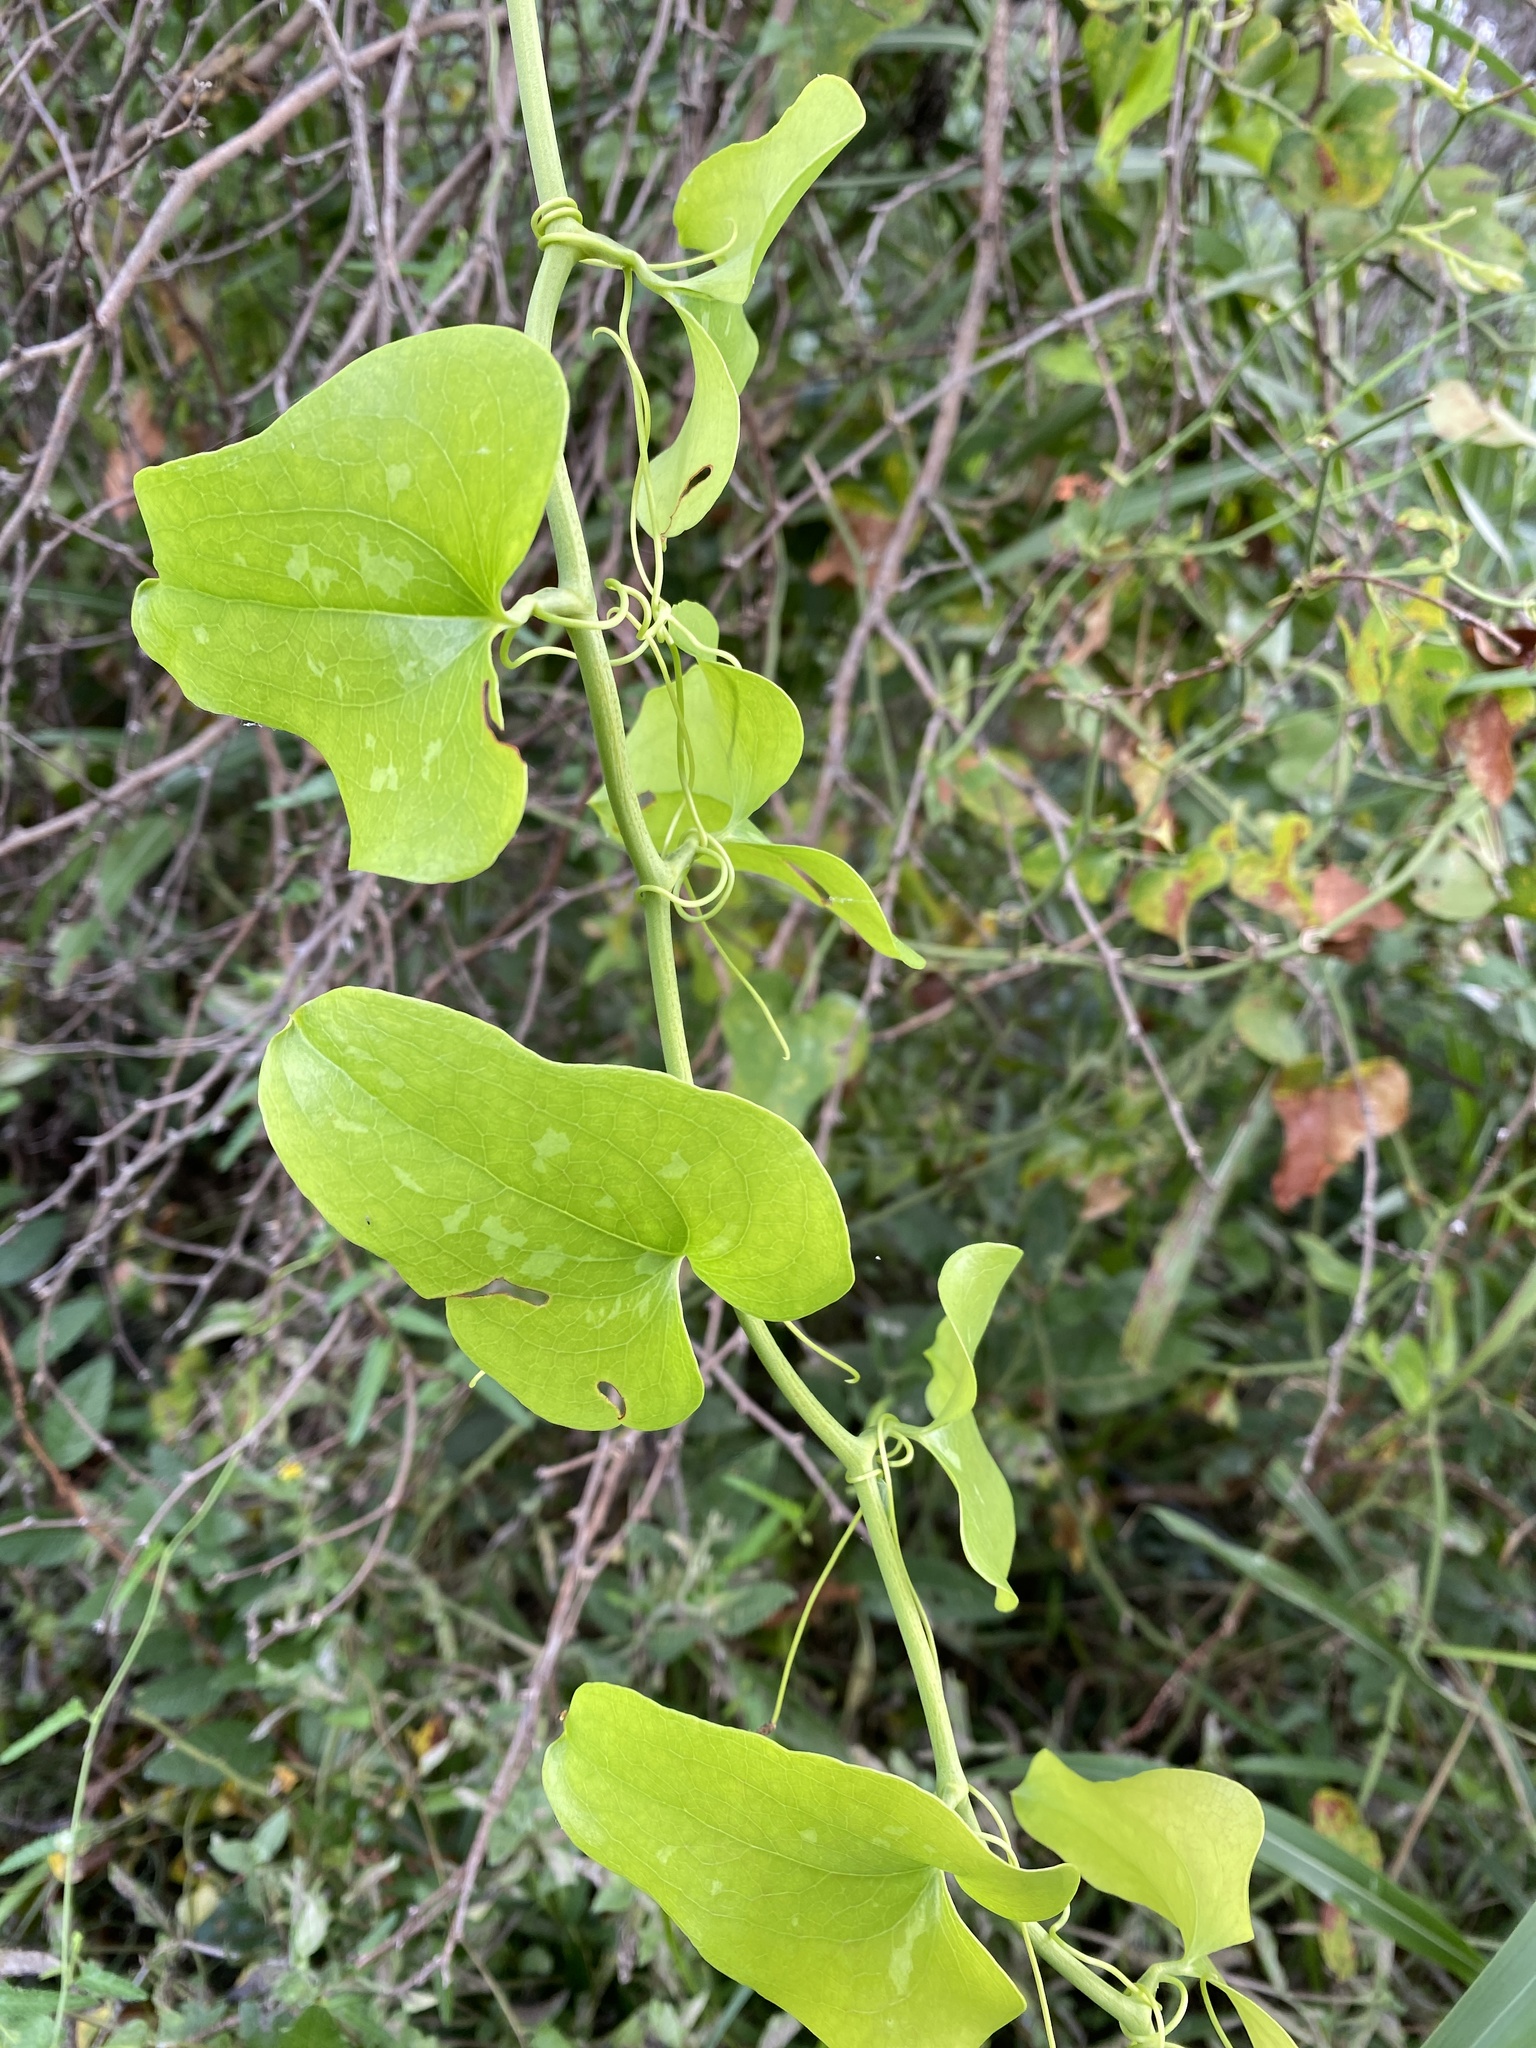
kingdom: Plantae
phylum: Tracheophyta
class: Liliopsida
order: Liliales
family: Smilacaceae
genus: Smilax
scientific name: Smilax bona-nox
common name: Catbrier
